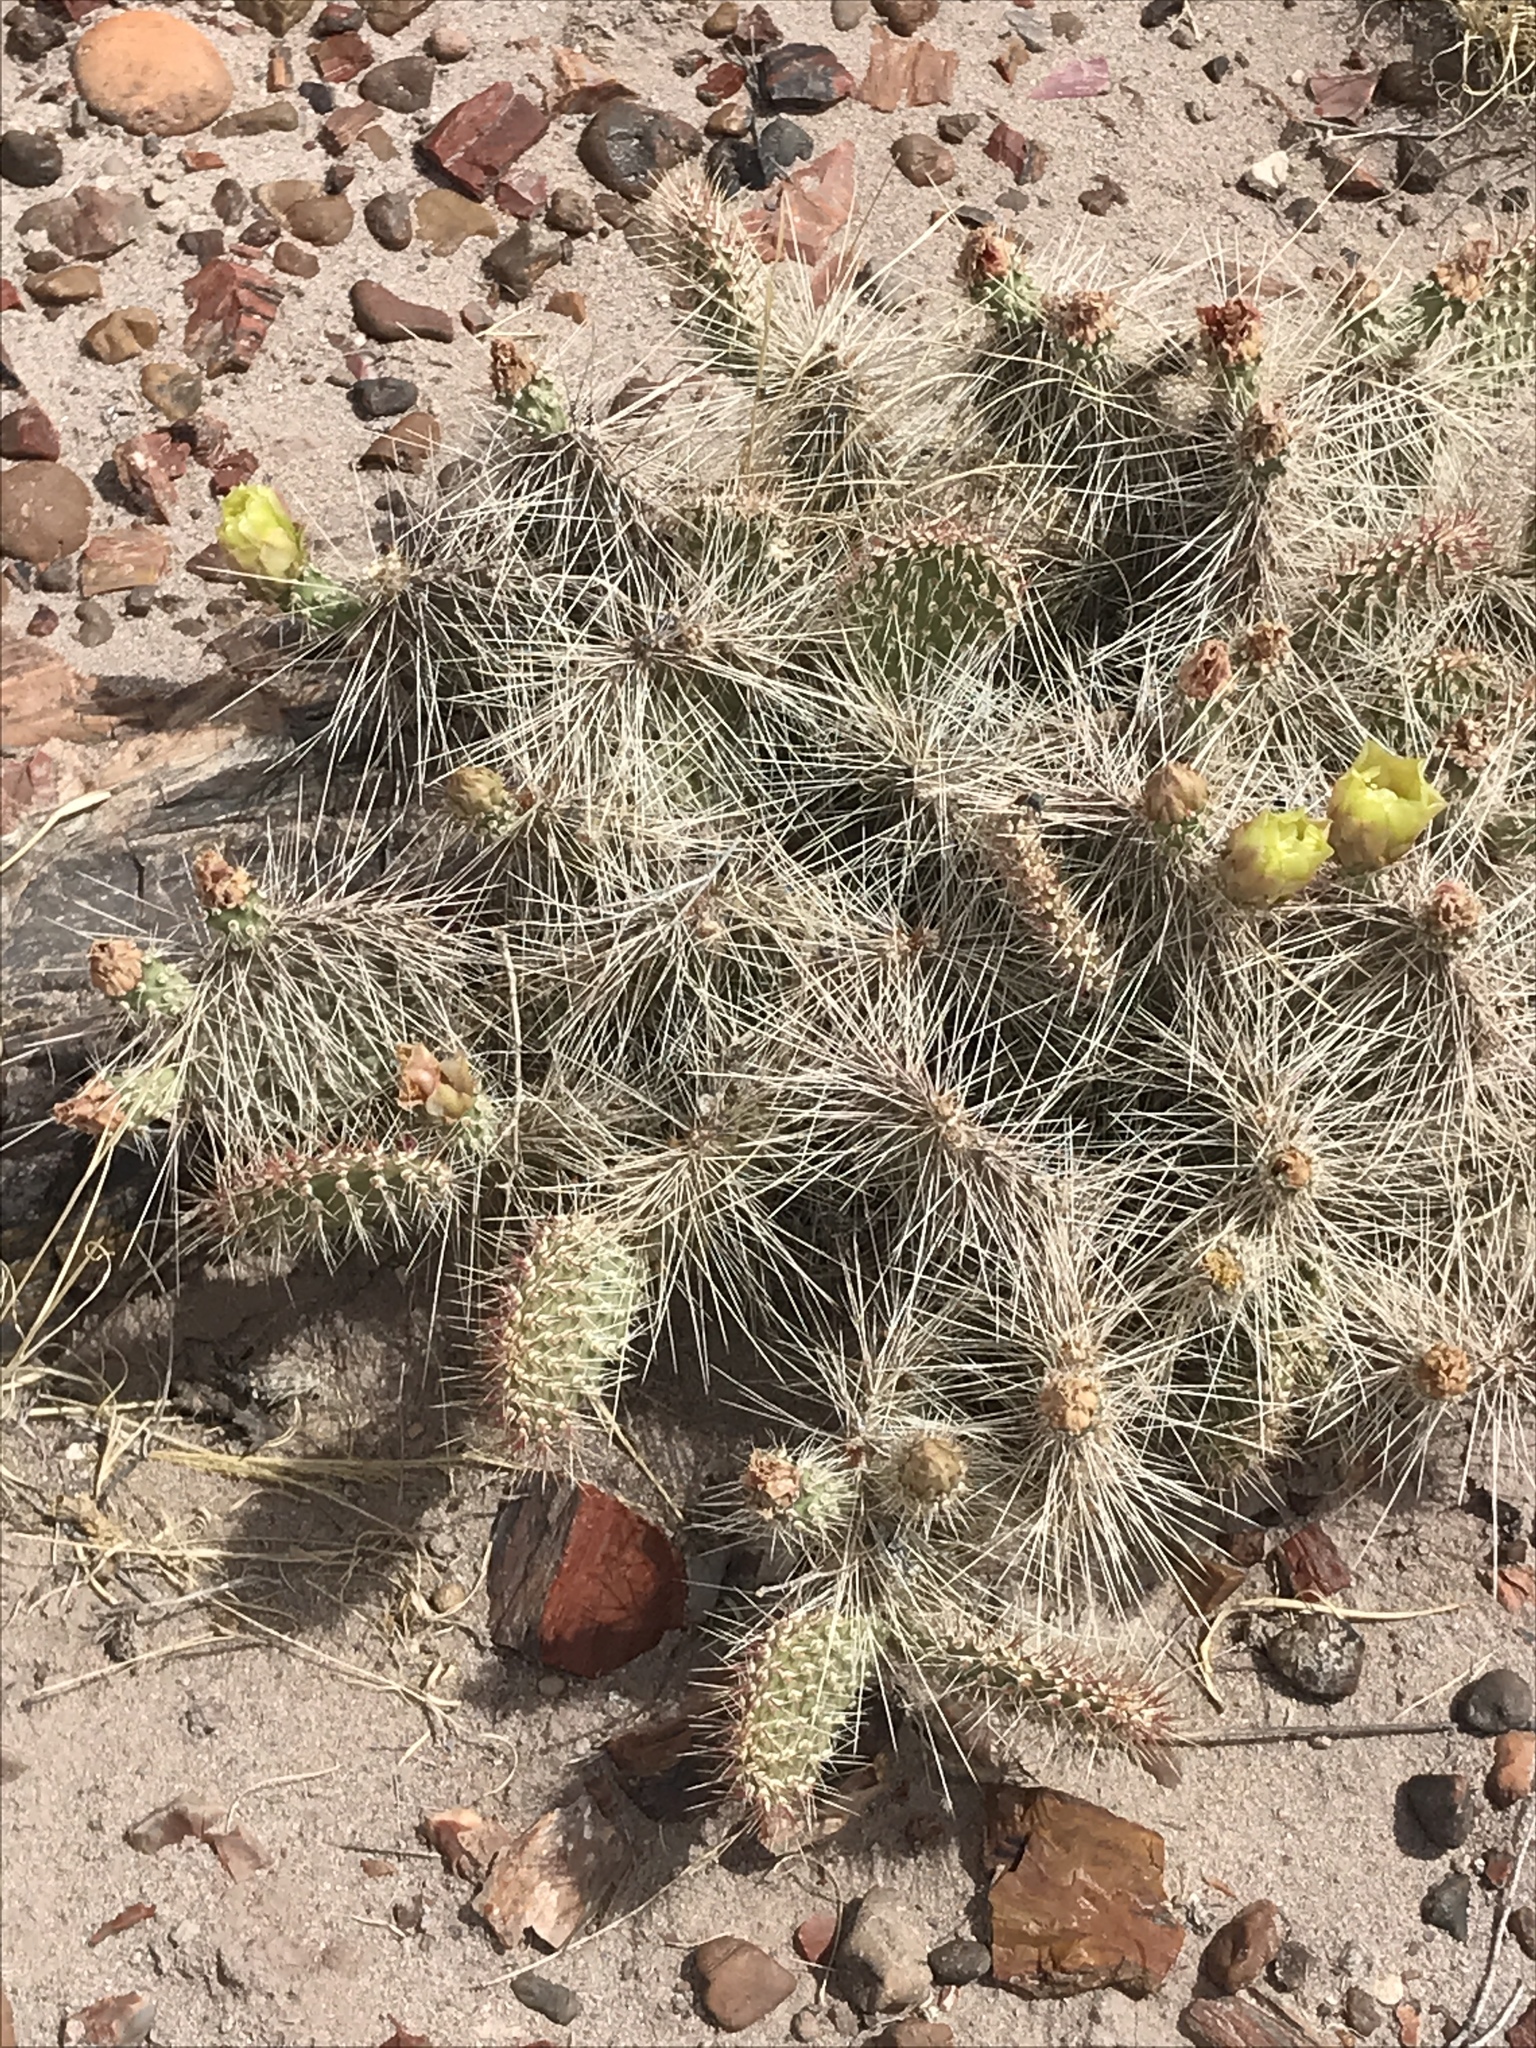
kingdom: Plantae
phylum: Tracheophyta
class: Magnoliopsida
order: Caryophyllales
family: Cactaceae
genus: Opuntia
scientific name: Opuntia polyacantha
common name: Plains prickly-pear
